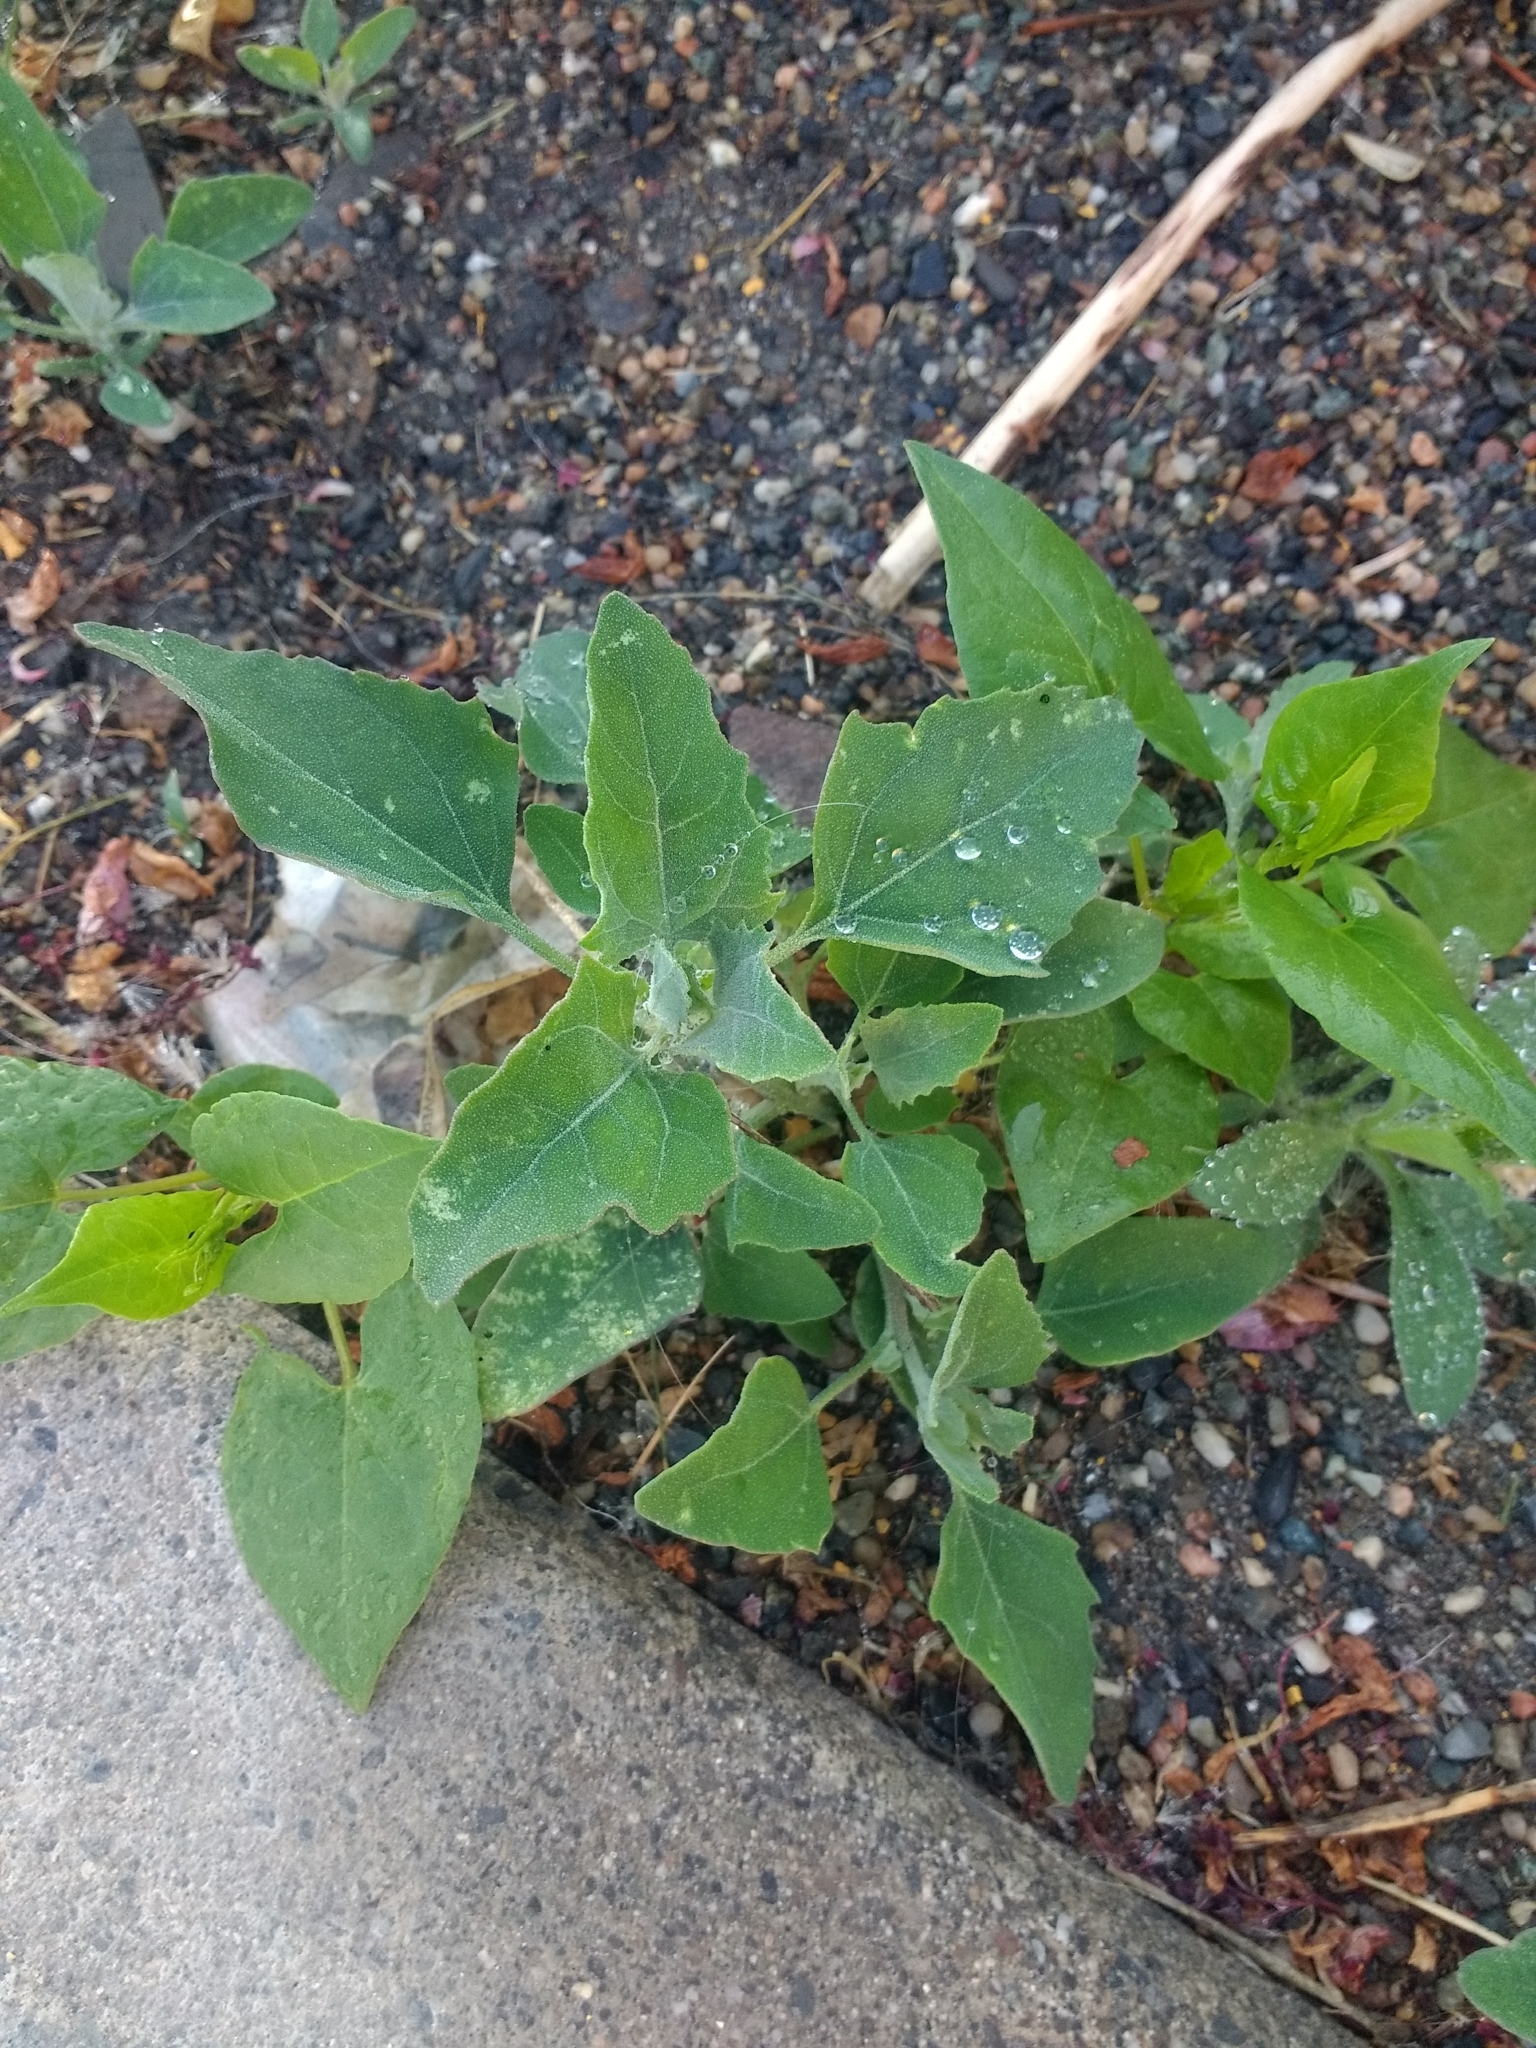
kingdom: Plantae
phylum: Tracheophyta
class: Magnoliopsida
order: Caryophyllales
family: Amaranthaceae
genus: Chenopodium
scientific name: Chenopodium album
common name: Fat-hen
